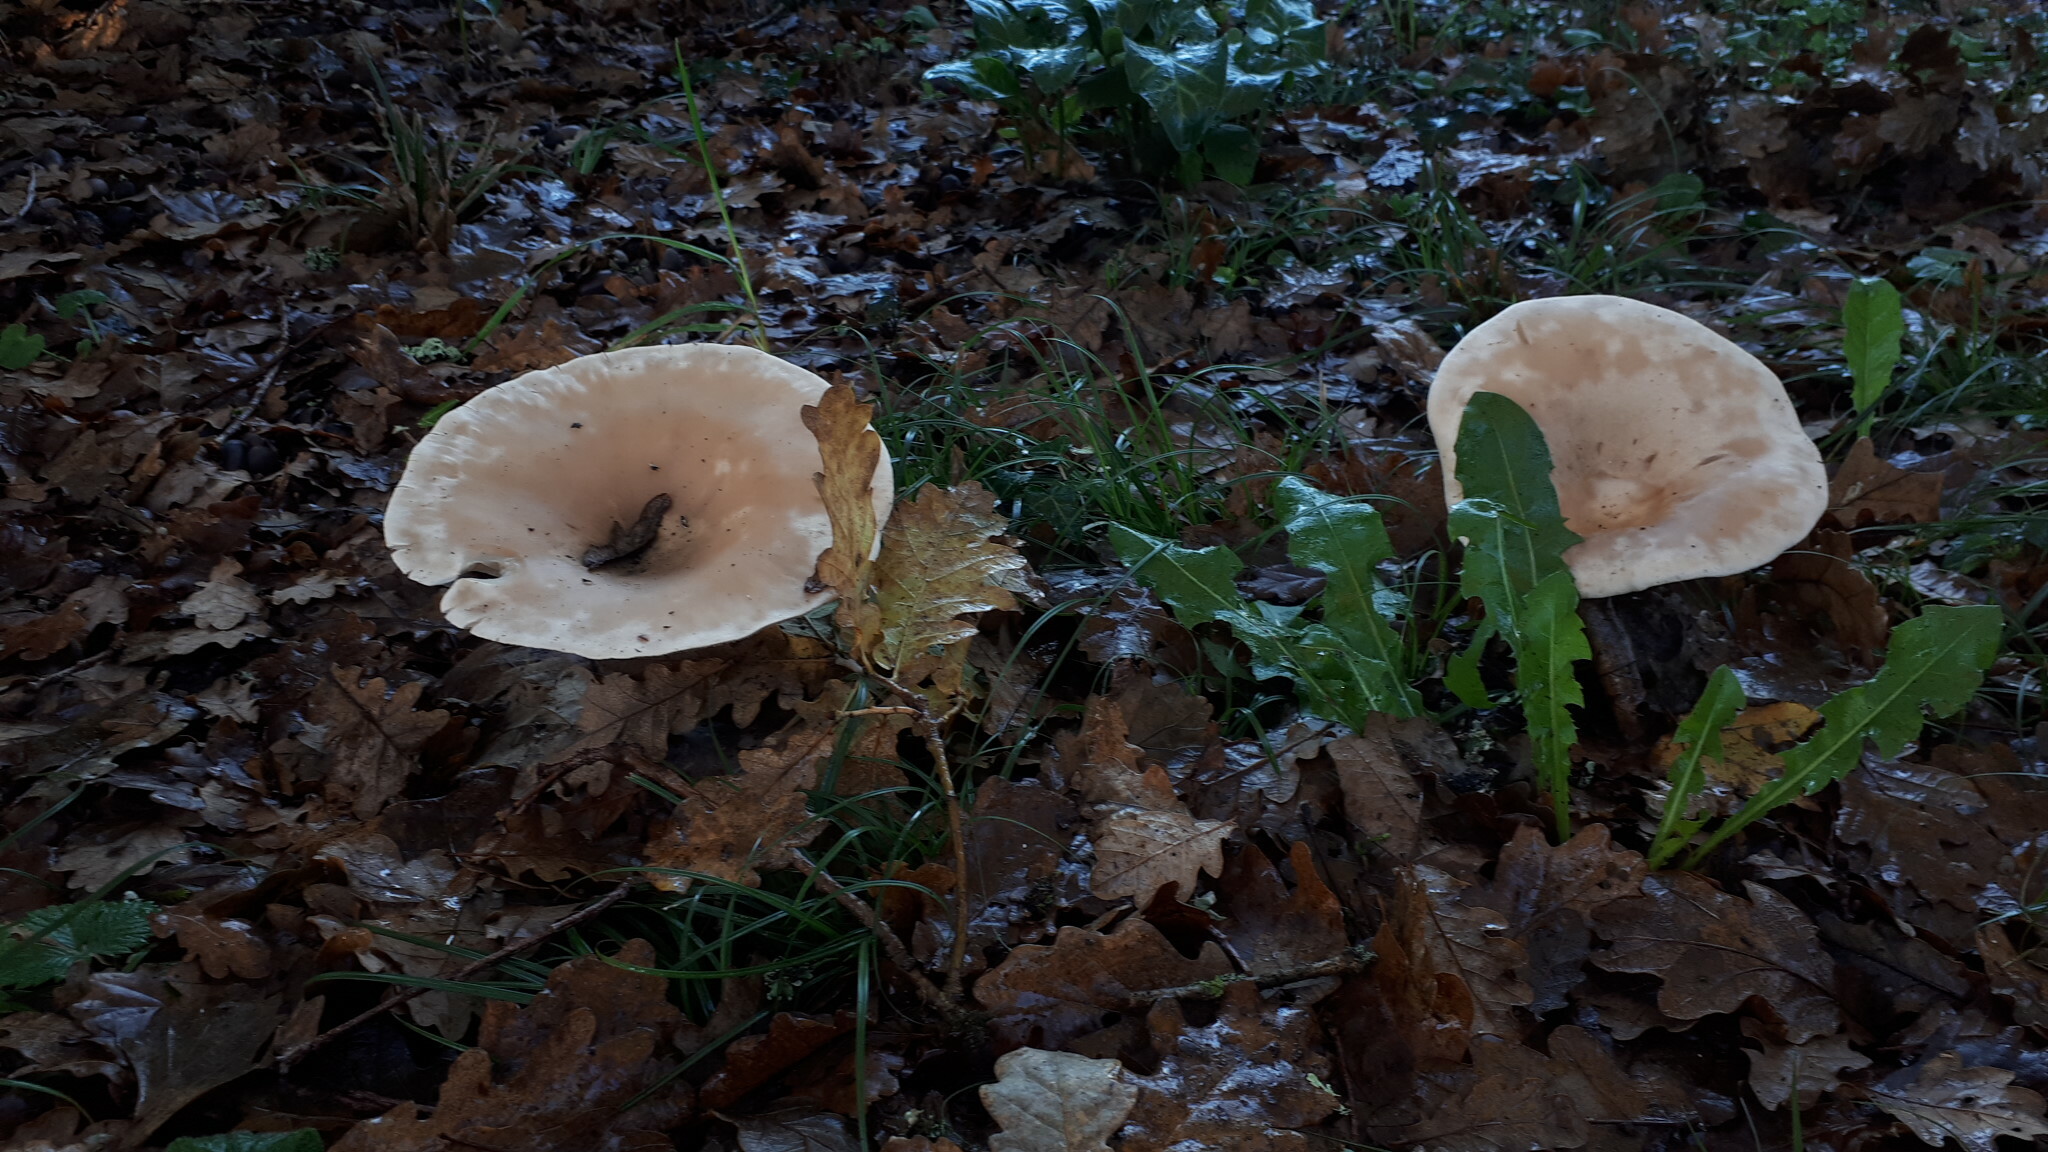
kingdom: Fungi
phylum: Basidiomycota
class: Agaricomycetes
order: Agaricales
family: Tricholomataceae
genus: Infundibulicybe
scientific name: Infundibulicybe geotropa
